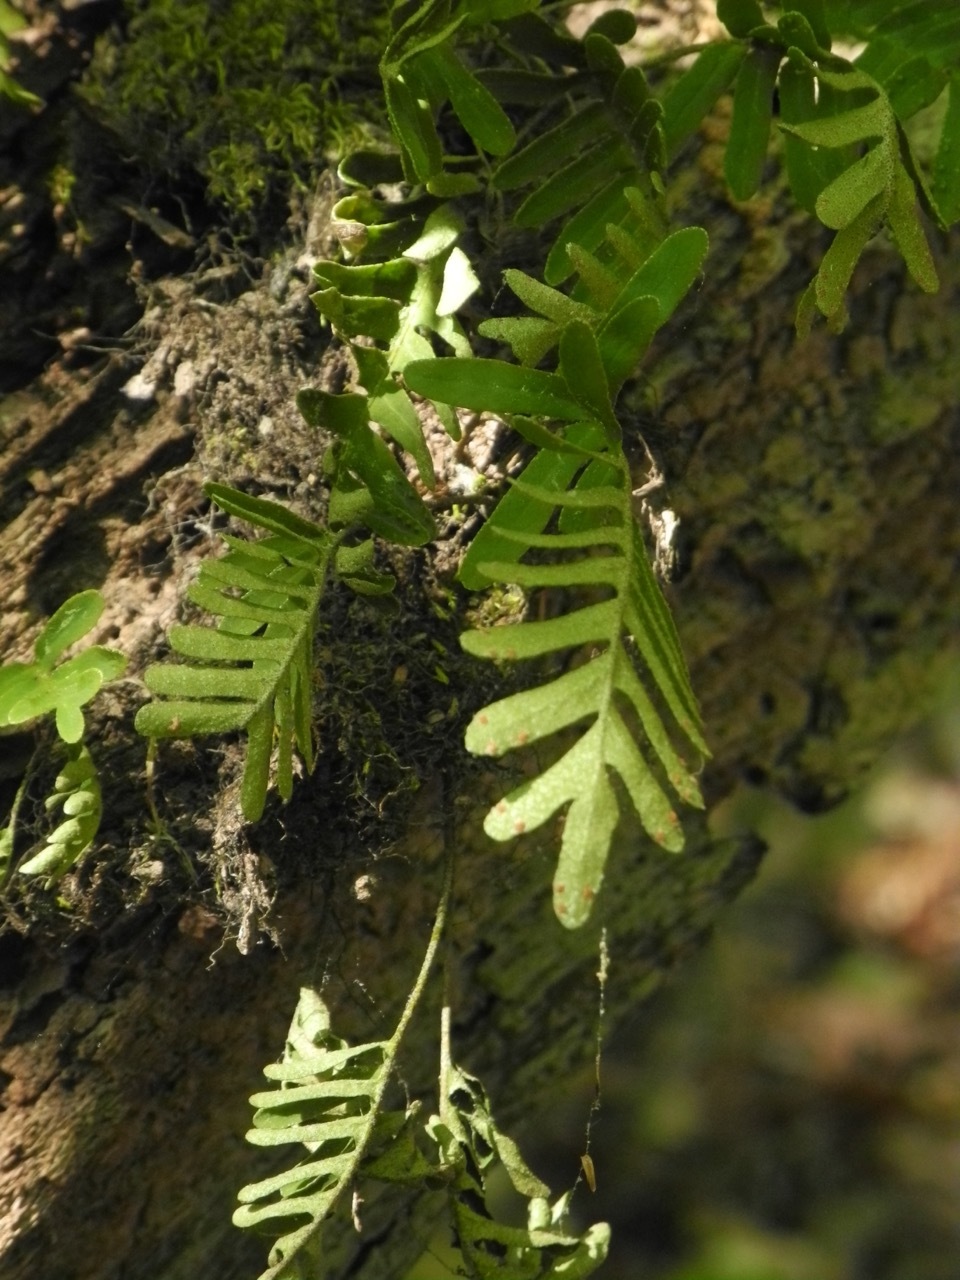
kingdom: Plantae
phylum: Tracheophyta
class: Polypodiopsida
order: Polypodiales
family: Polypodiaceae
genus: Pleopeltis
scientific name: Pleopeltis michauxiana
